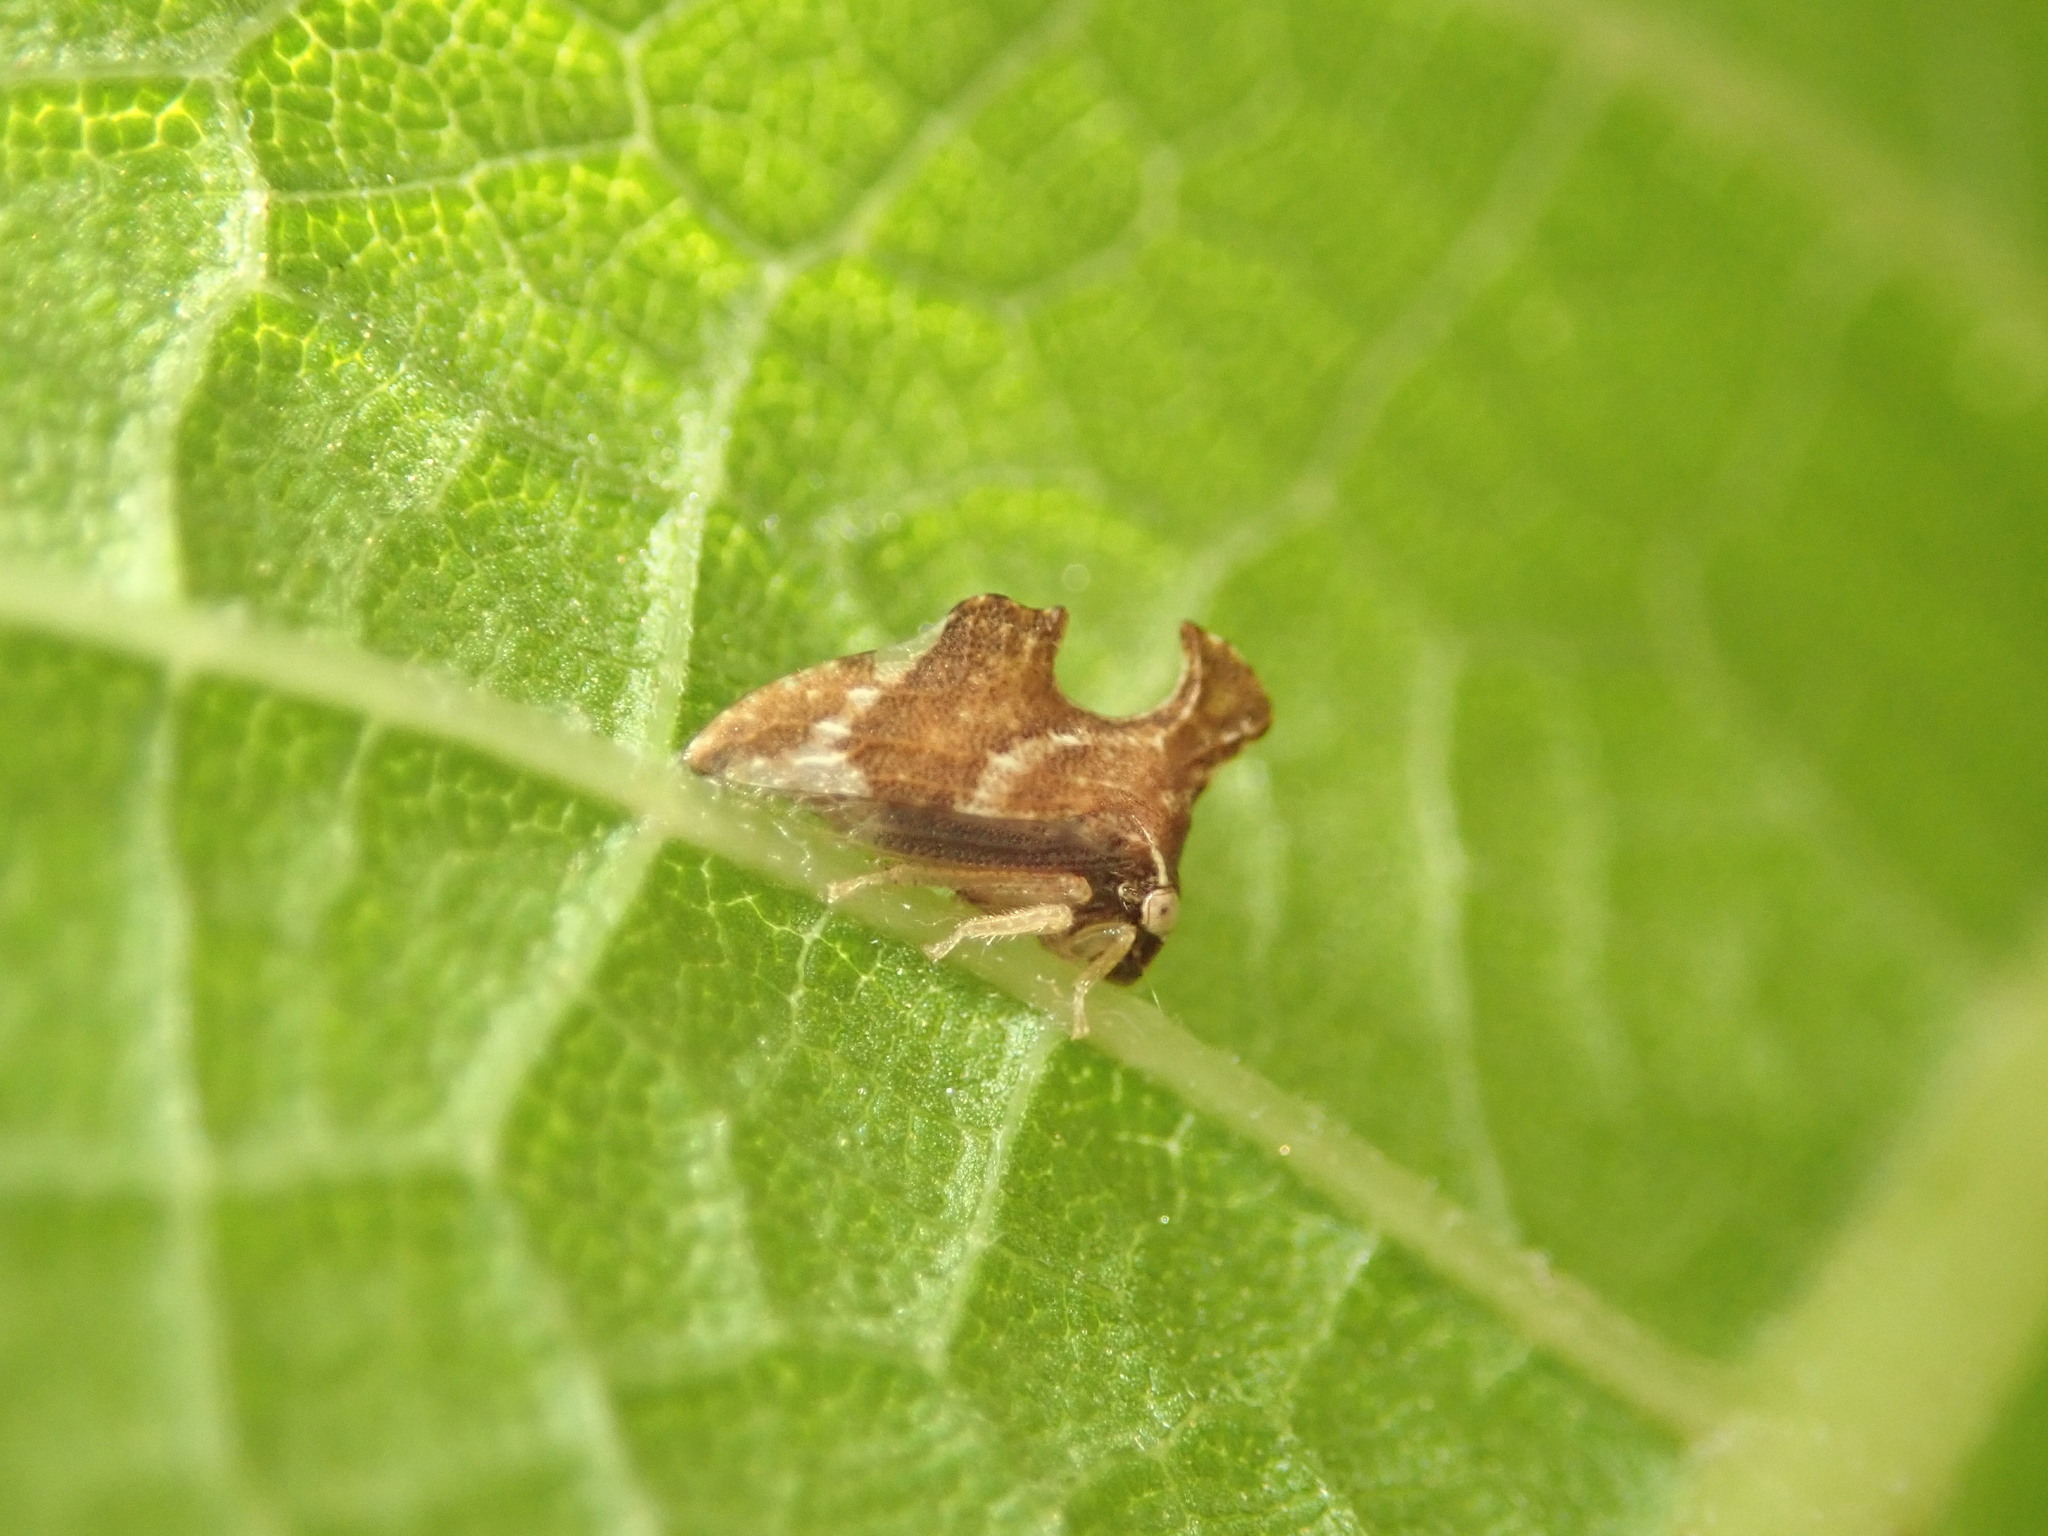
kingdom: Animalia
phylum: Arthropoda
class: Insecta
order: Hemiptera
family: Membracidae
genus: Entylia
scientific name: Entylia carinata
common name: Keeled treehopper
